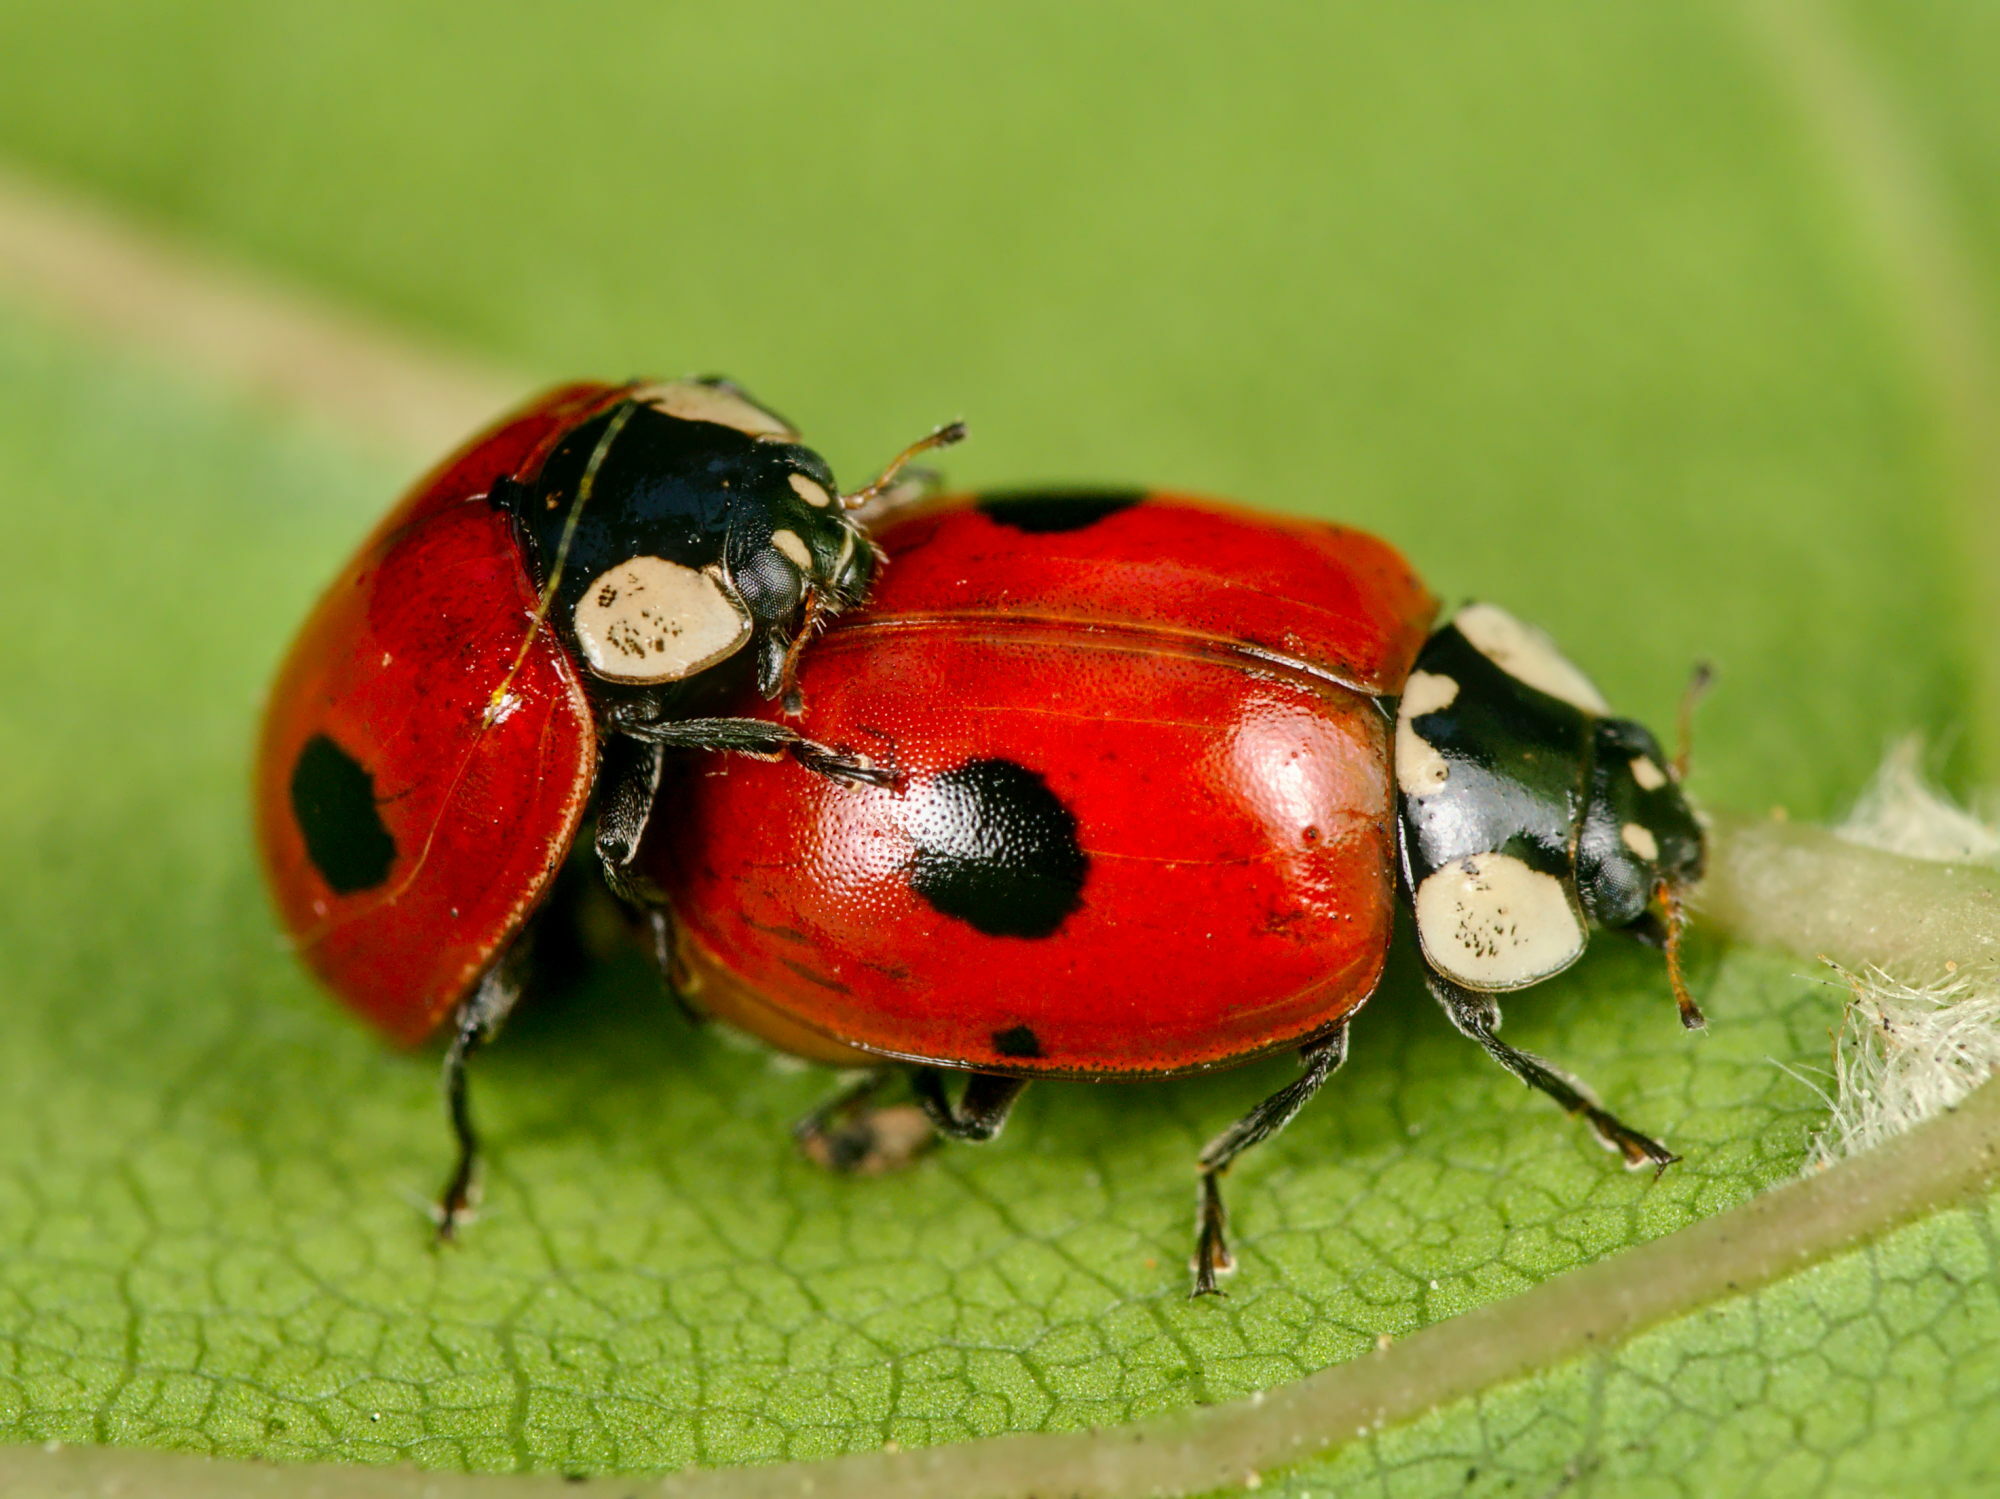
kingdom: Animalia
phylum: Arthropoda
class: Insecta
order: Coleoptera
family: Coccinellidae
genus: Adalia
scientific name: Adalia bipunctata
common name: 2-spot ladybird
